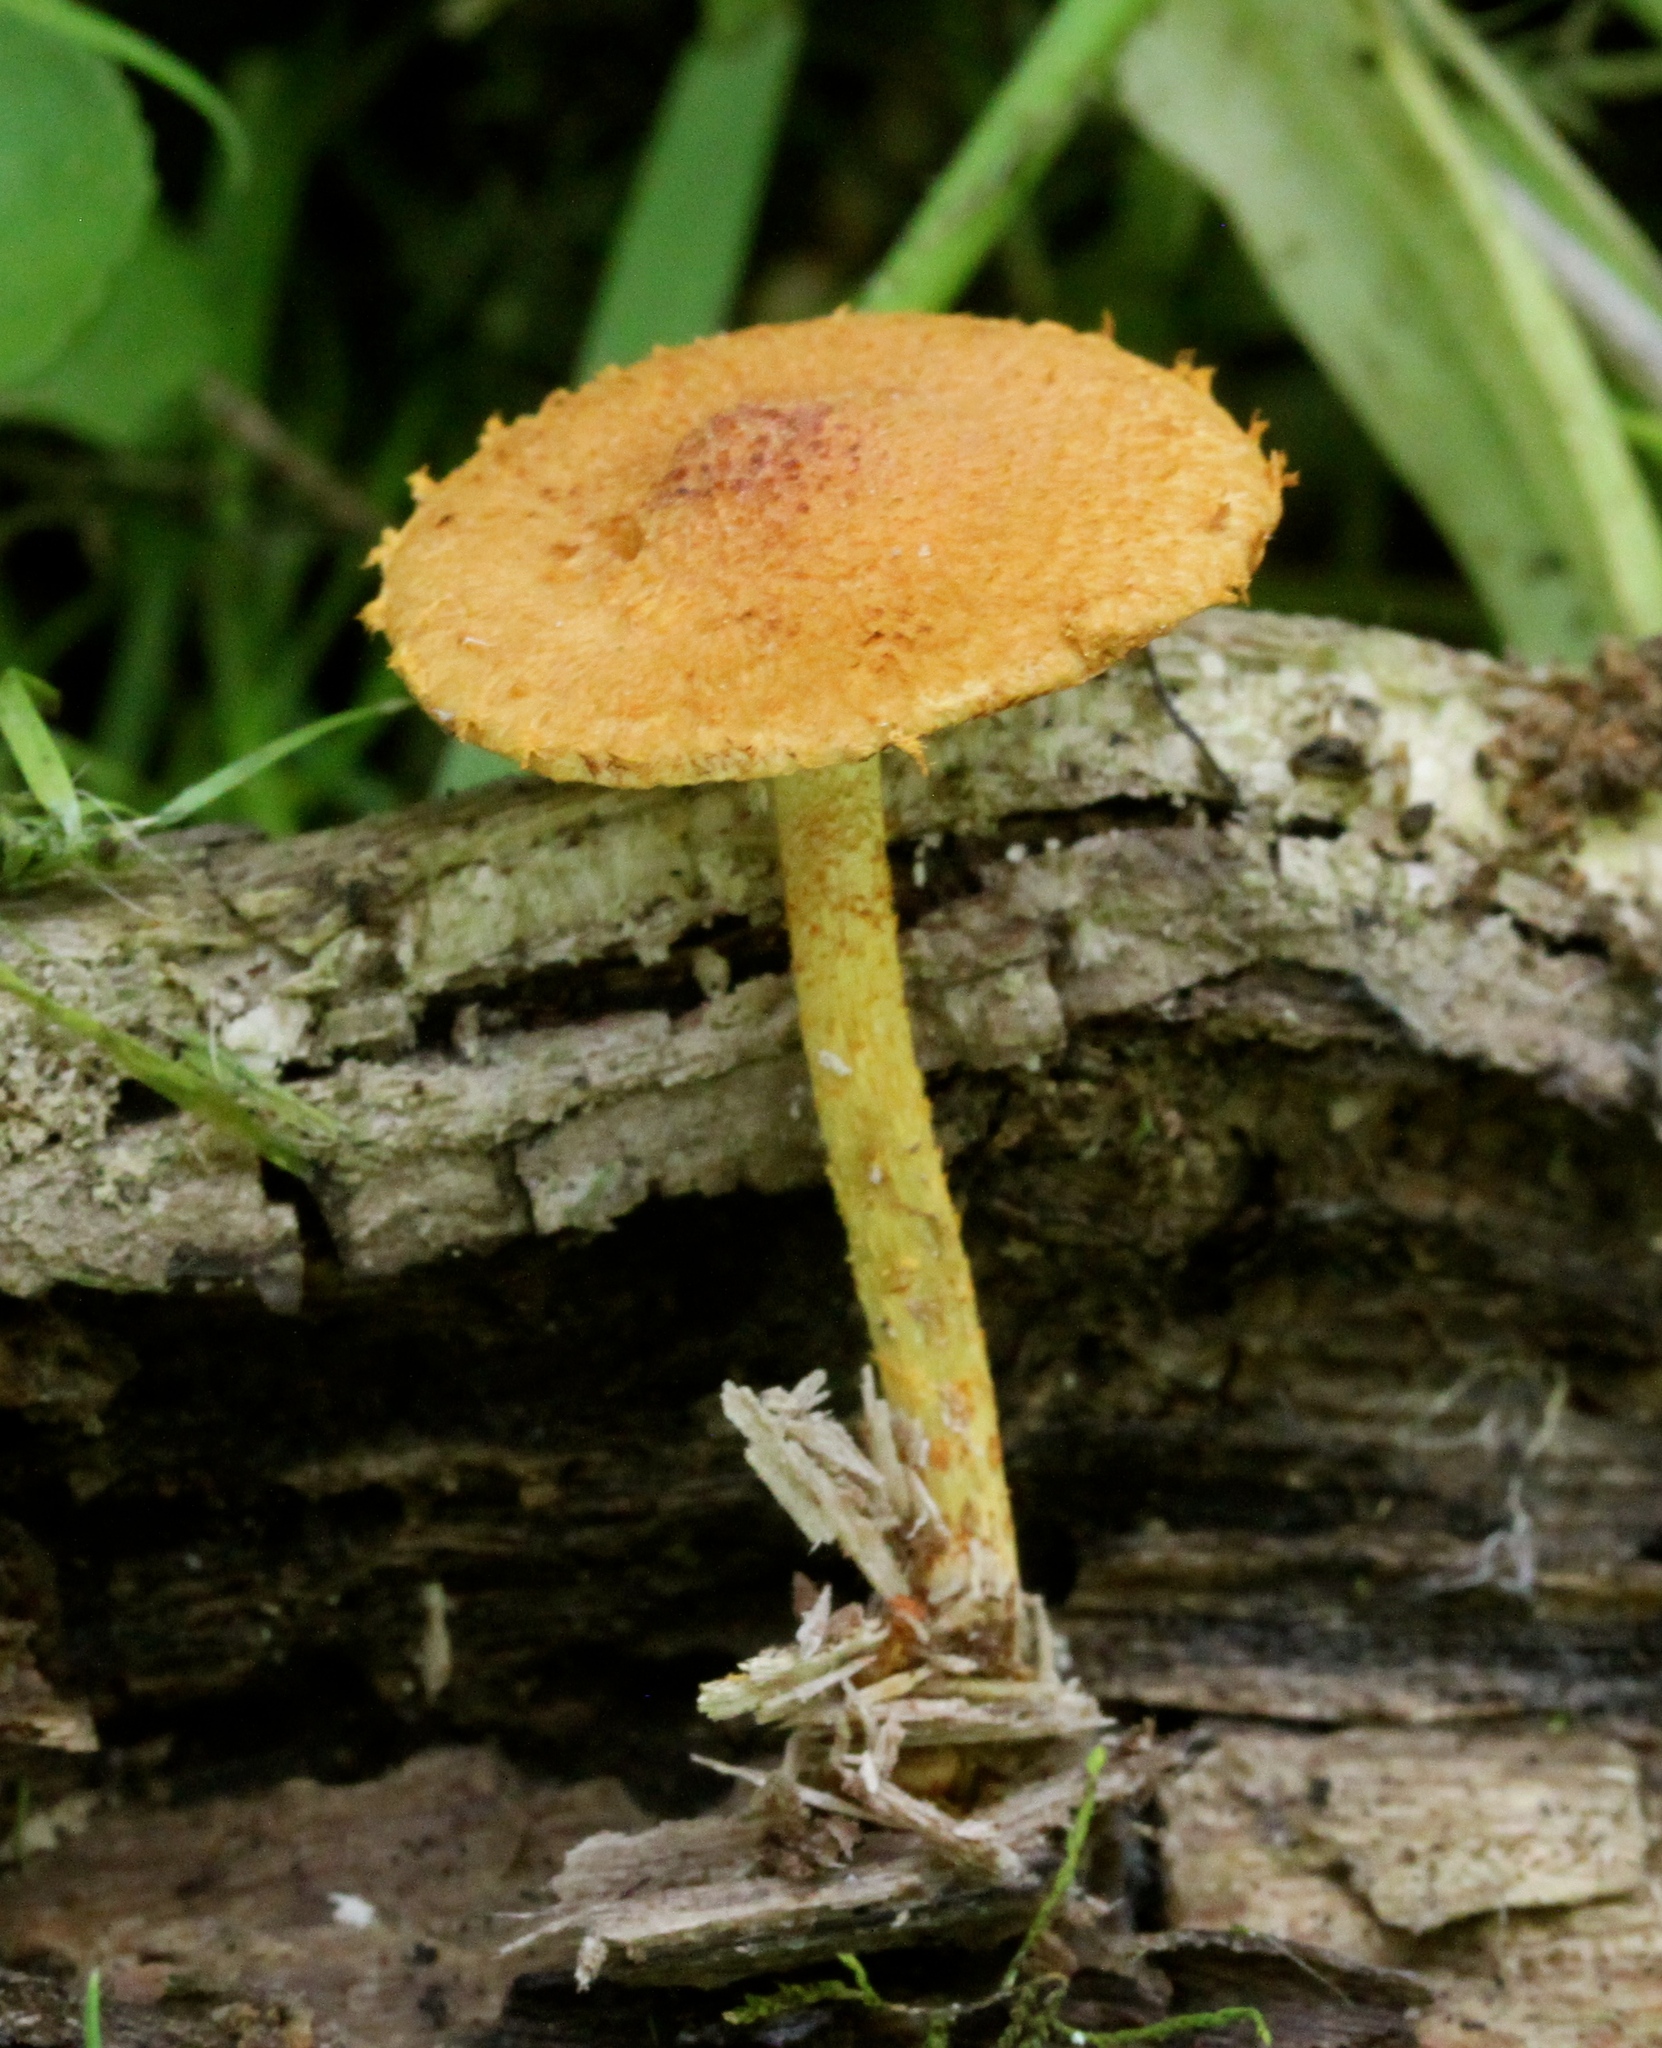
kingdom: Fungi
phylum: Basidiomycota
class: Agaricomycetes
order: Agaricales
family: Tubariaceae
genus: Flammulaster
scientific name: Flammulaster erinaceellus
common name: Powder-scale pholiota
